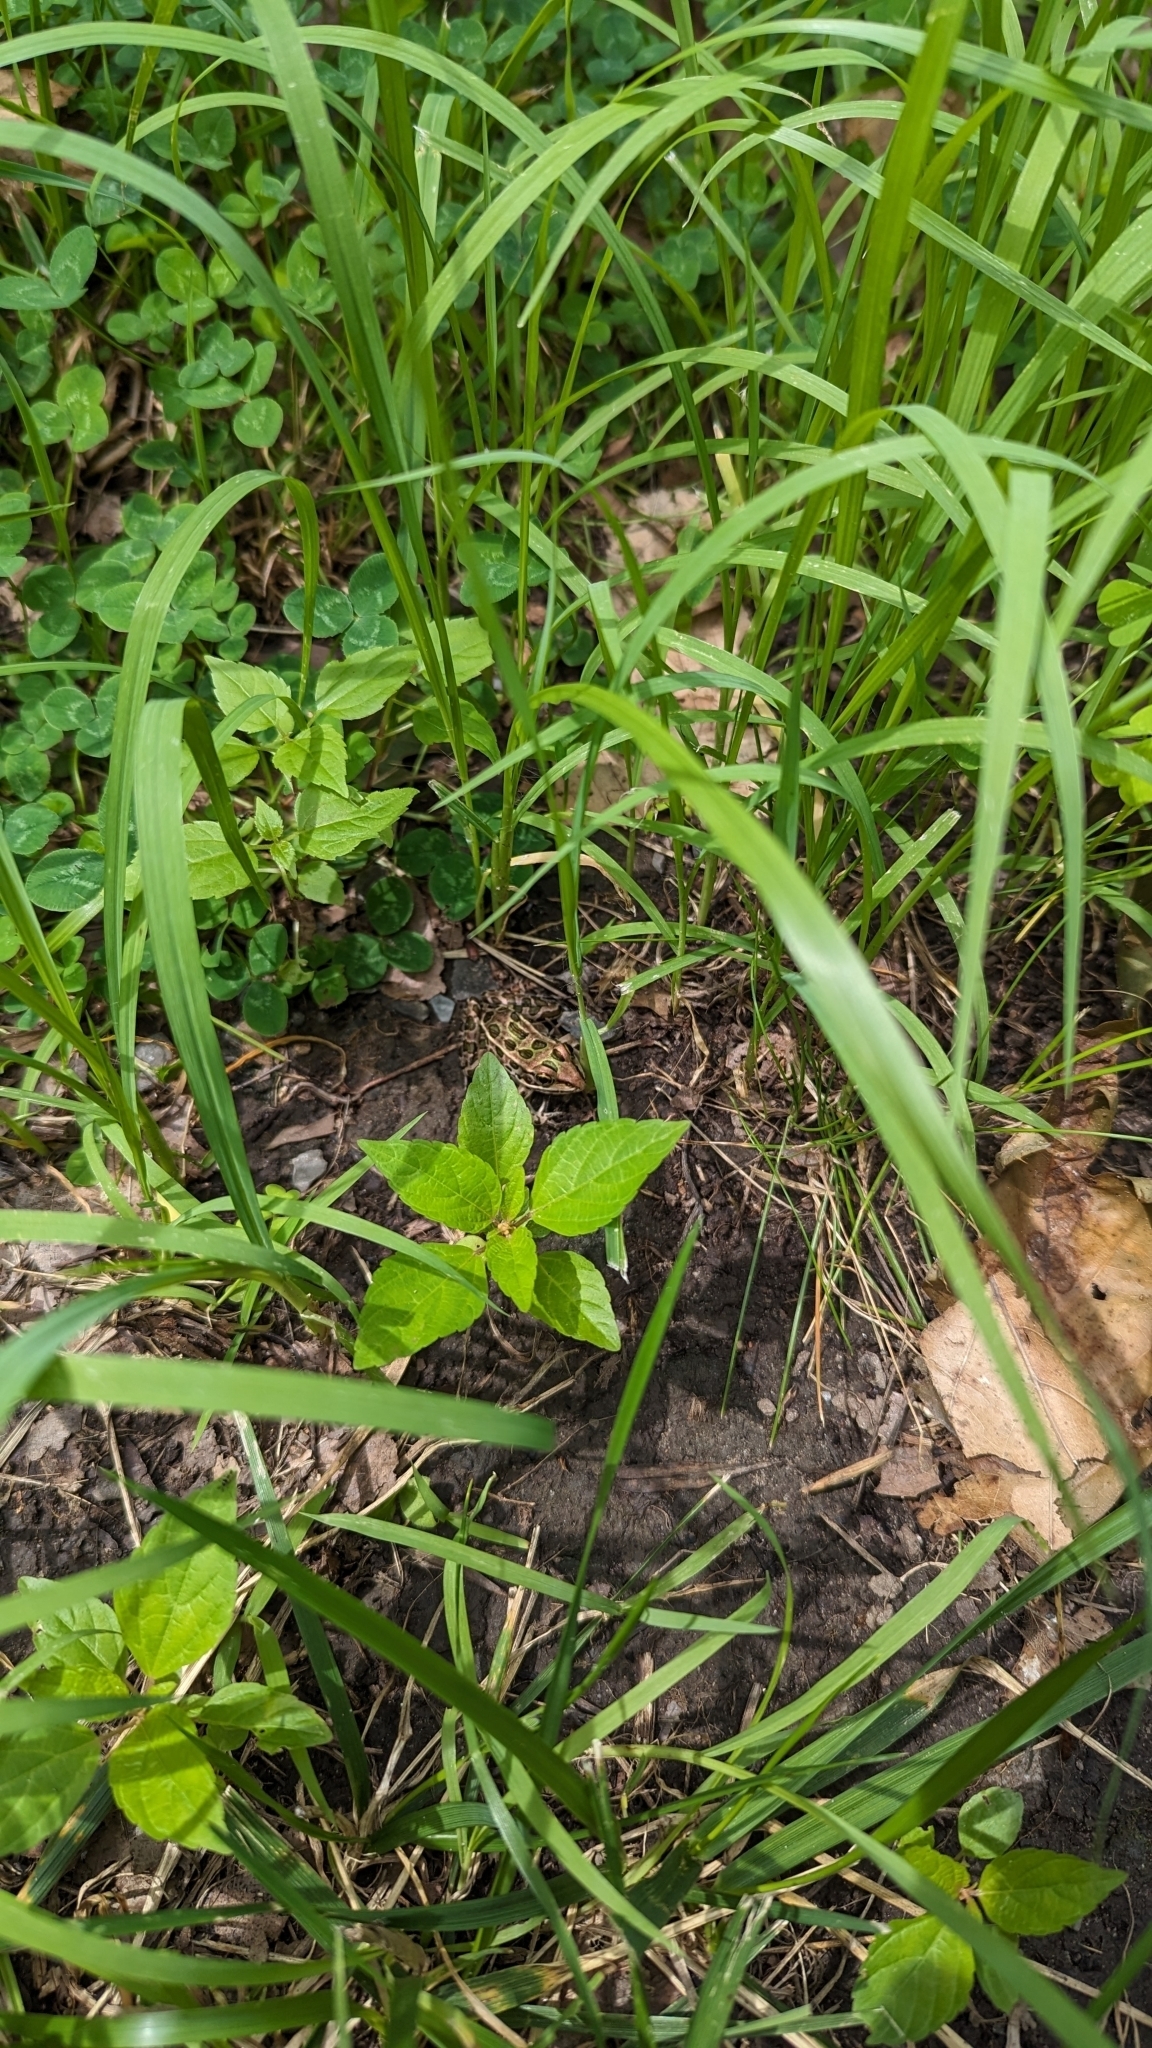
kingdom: Animalia
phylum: Chordata
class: Amphibia
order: Anura
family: Ranidae
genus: Lithobates
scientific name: Lithobates pipiens
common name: Northern leopard frog
